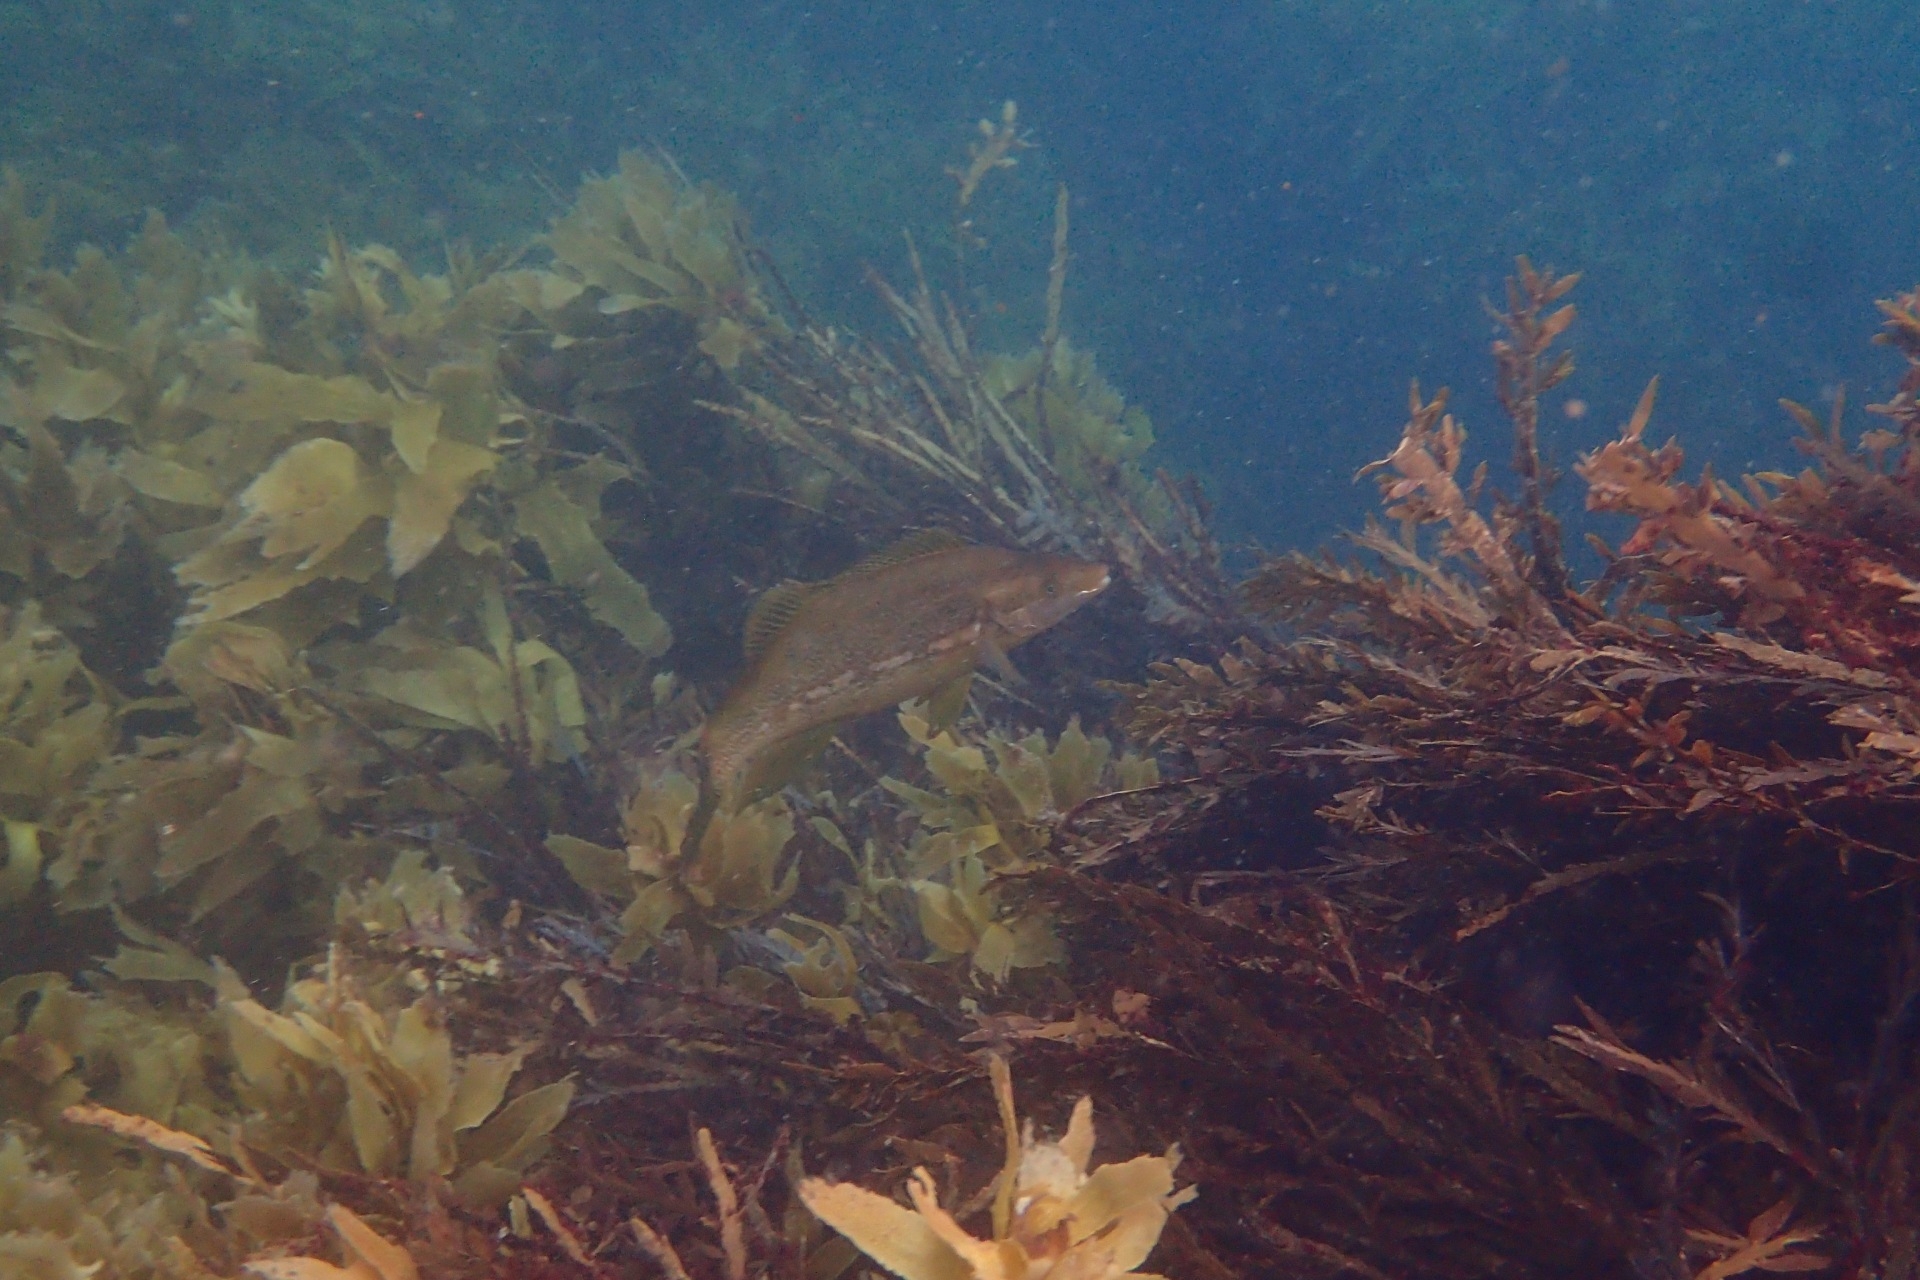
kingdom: Animalia
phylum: Chordata
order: Perciformes
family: Odacidae
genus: Odax
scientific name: Odax pullus
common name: Butterfish
